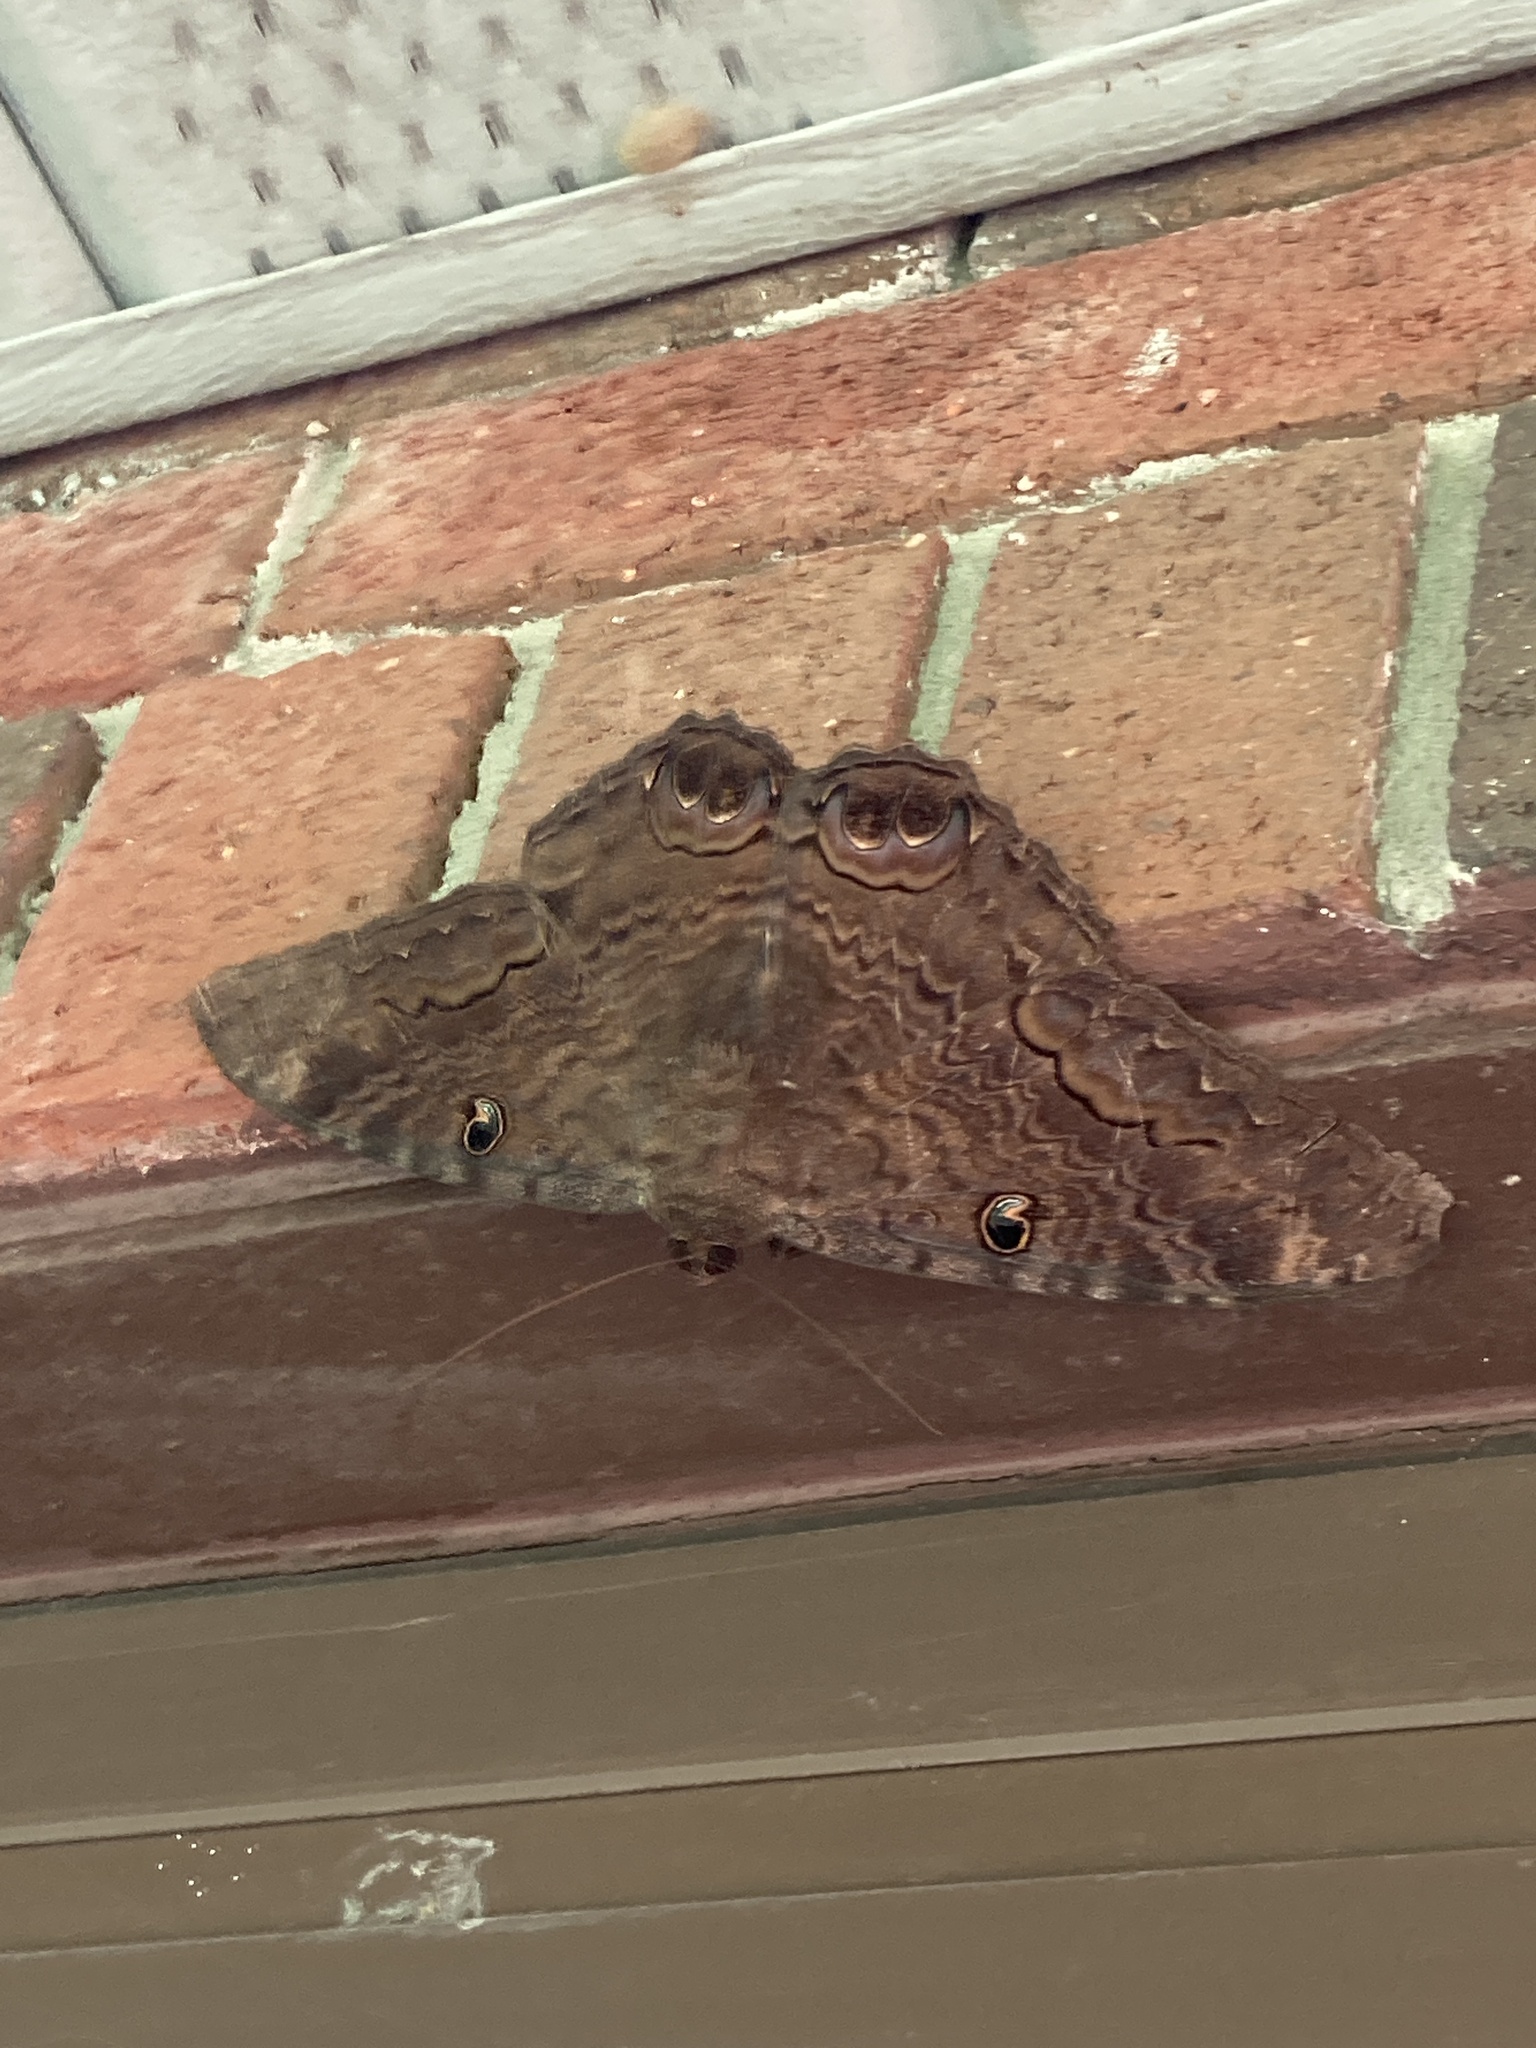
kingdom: Animalia
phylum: Arthropoda
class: Insecta
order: Lepidoptera
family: Erebidae
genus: Ascalapha
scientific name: Ascalapha odorata
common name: Black witch
